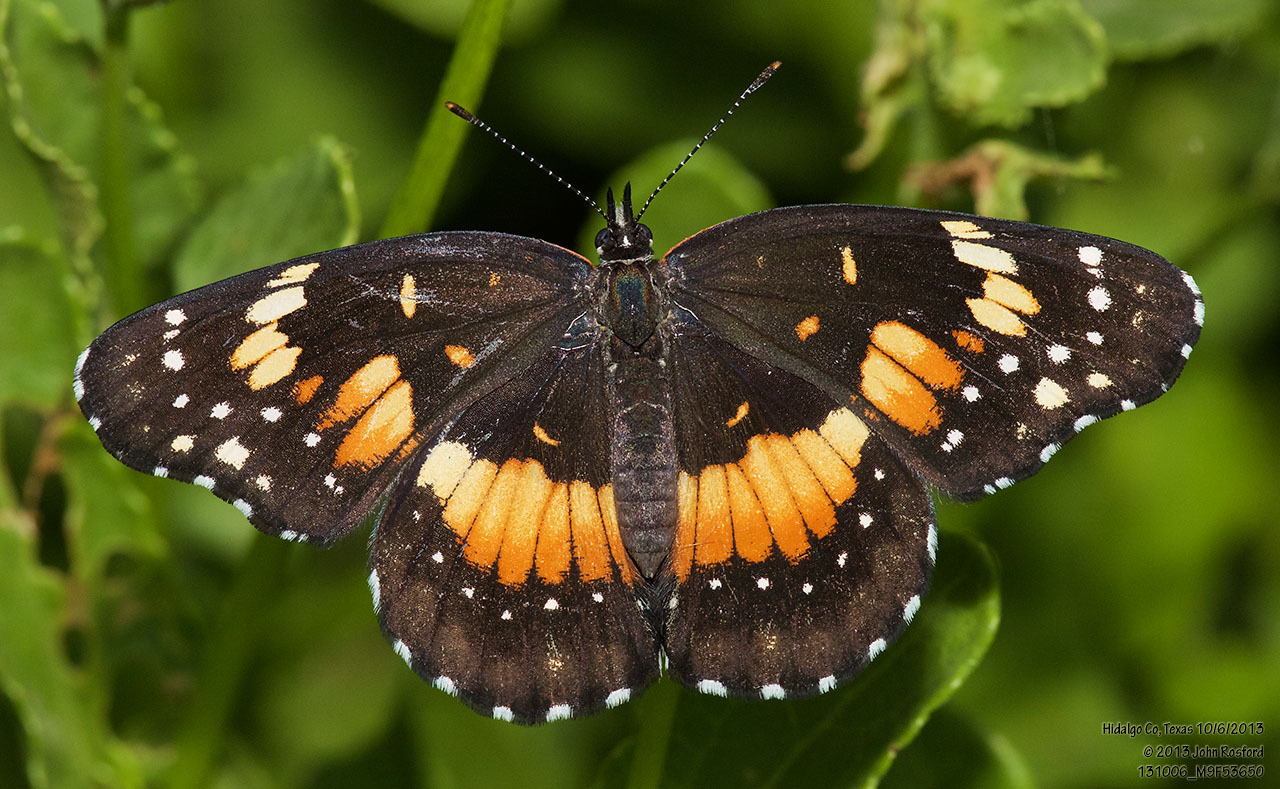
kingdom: Animalia
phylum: Arthropoda
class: Insecta
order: Lepidoptera
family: Nymphalidae
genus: Chlosyne
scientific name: Chlosyne lacinia
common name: Bordered patch
